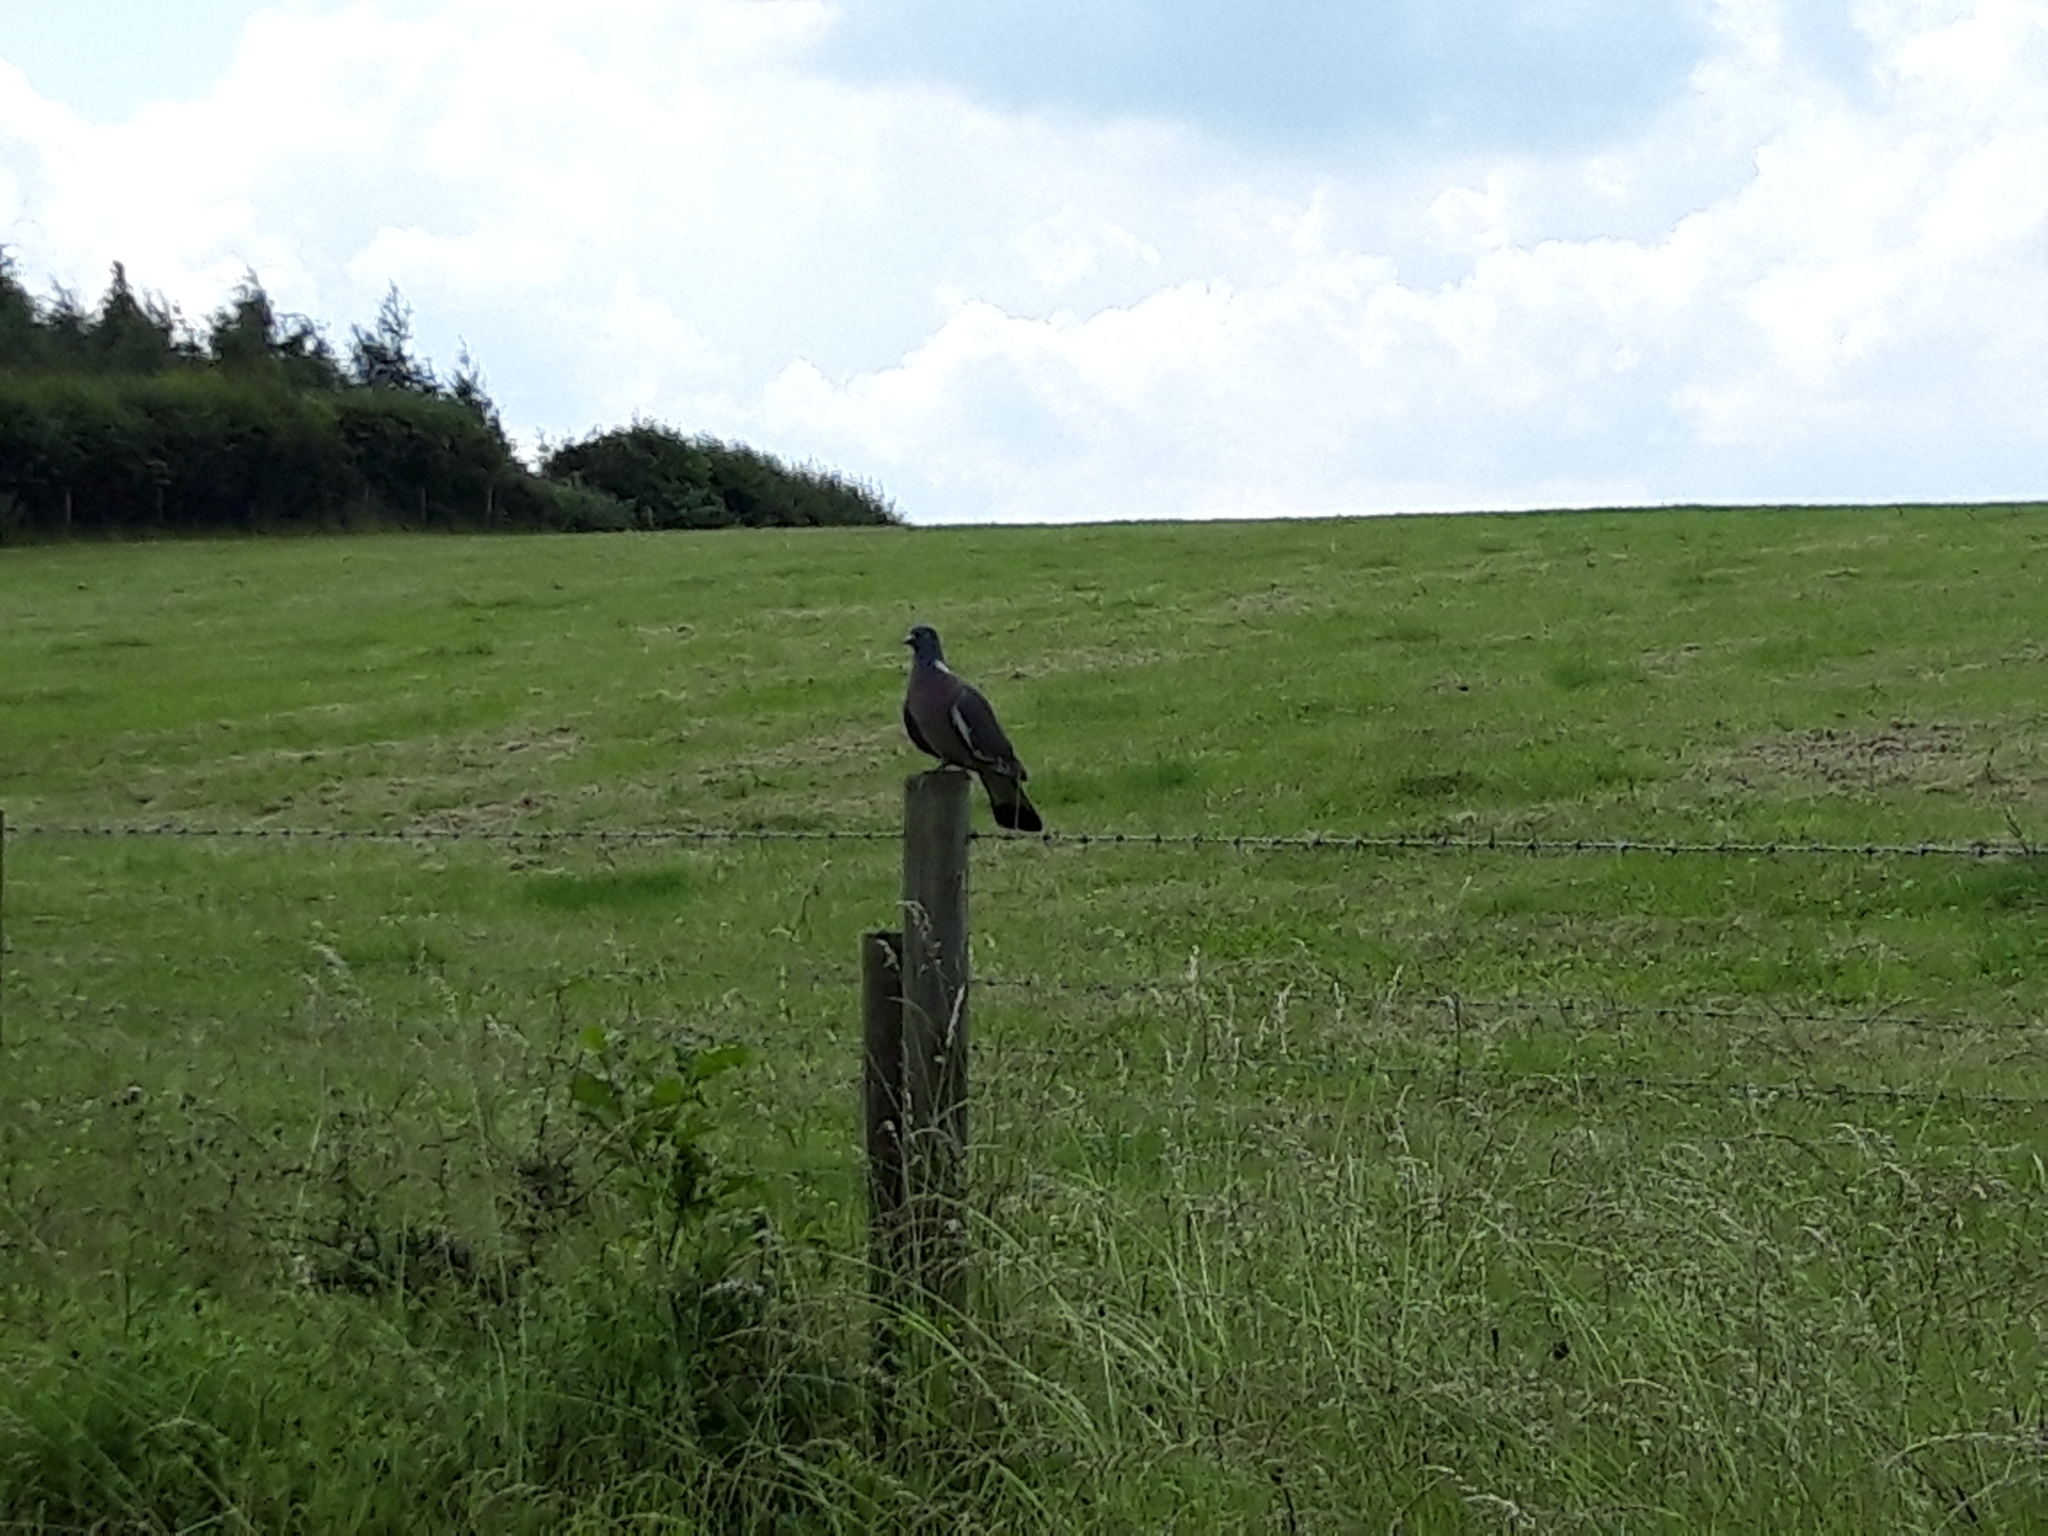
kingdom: Animalia
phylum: Chordata
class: Aves
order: Columbiformes
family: Columbidae
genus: Columba
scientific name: Columba palumbus
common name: Common wood pigeon
